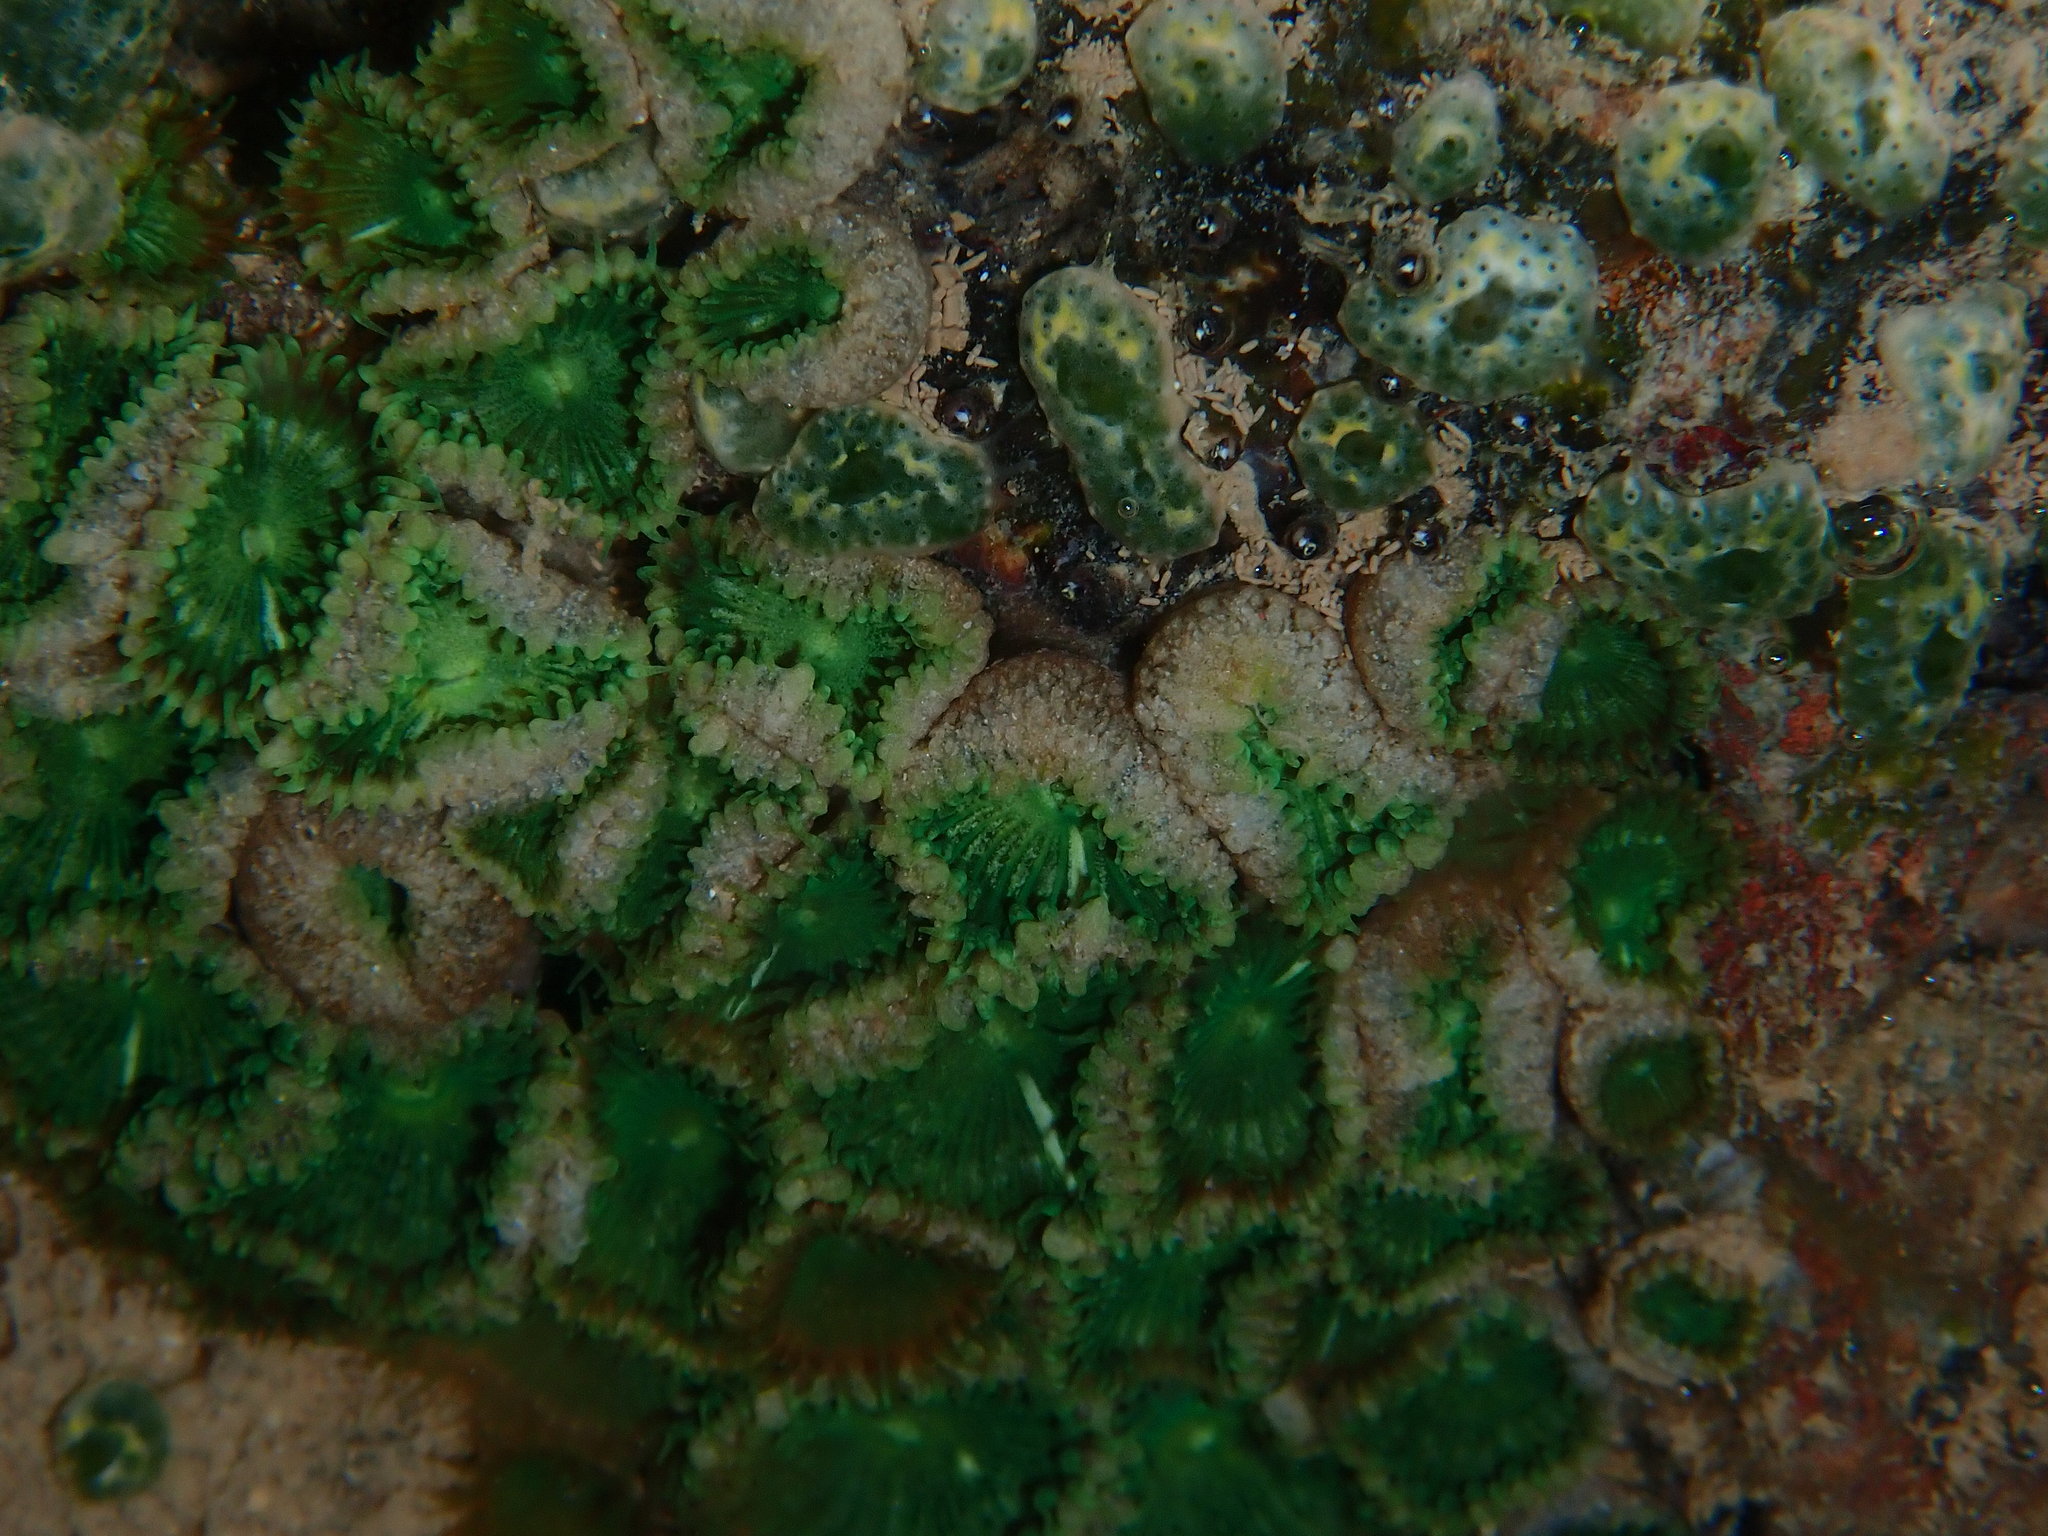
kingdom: Animalia
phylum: Cnidaria
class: Anthozoa
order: Zoantharia
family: Sphenopidae
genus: Palythoa
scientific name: Palythoa mutuki
